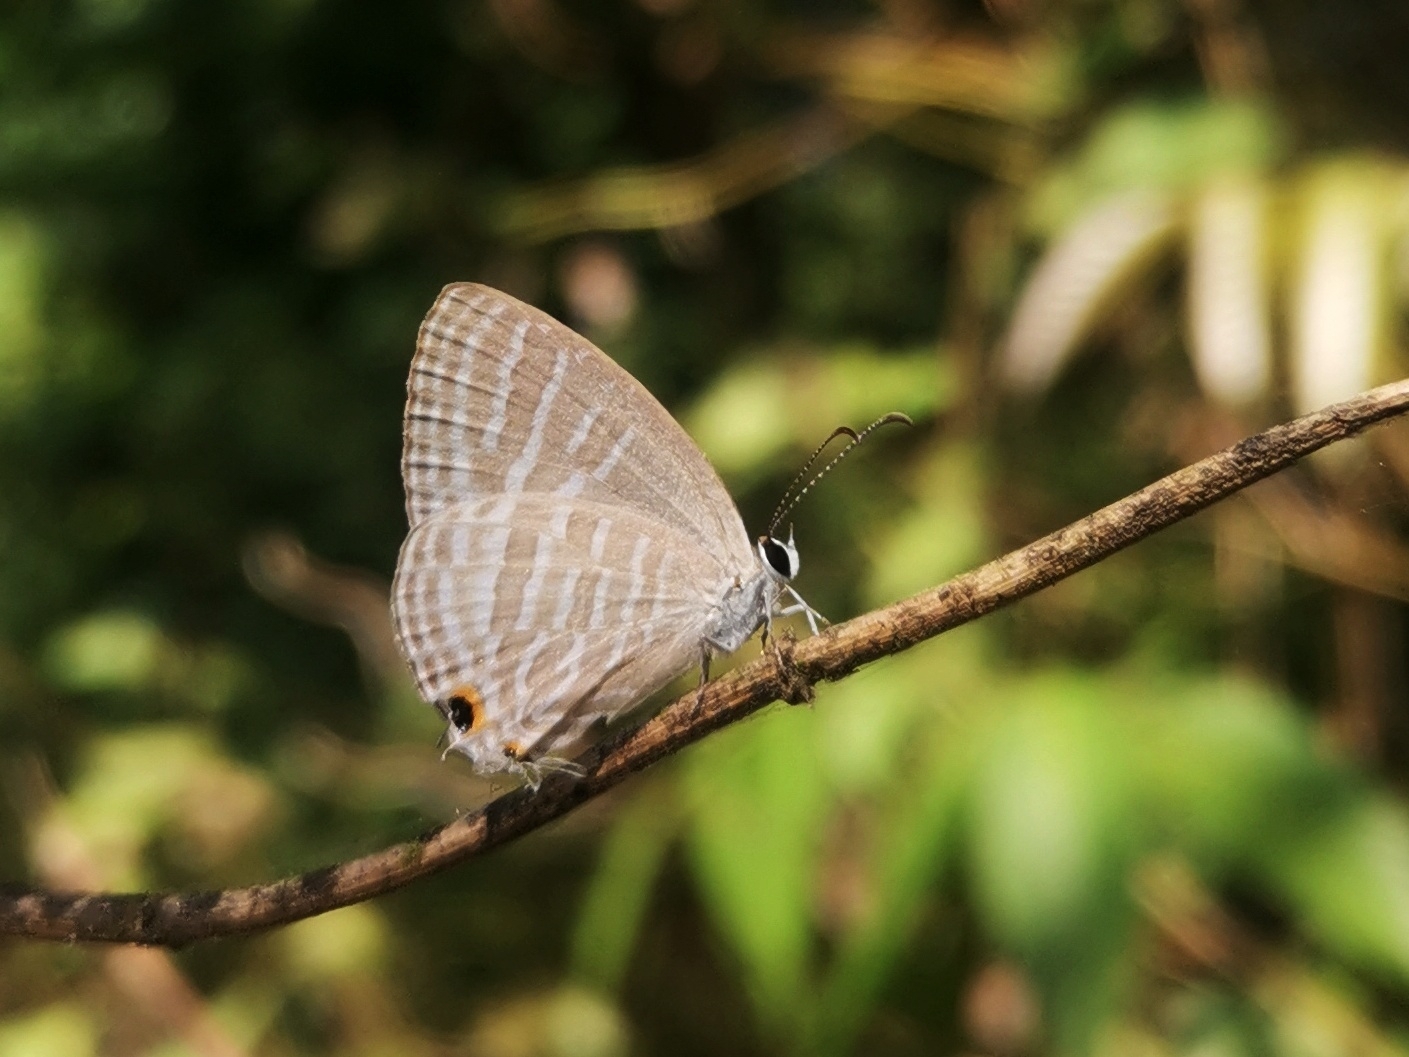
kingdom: Animalia
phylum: Arthropoda
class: Insecta
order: Lepidoptera
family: Lycaenidae
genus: Jamides
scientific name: Jamides celeno
